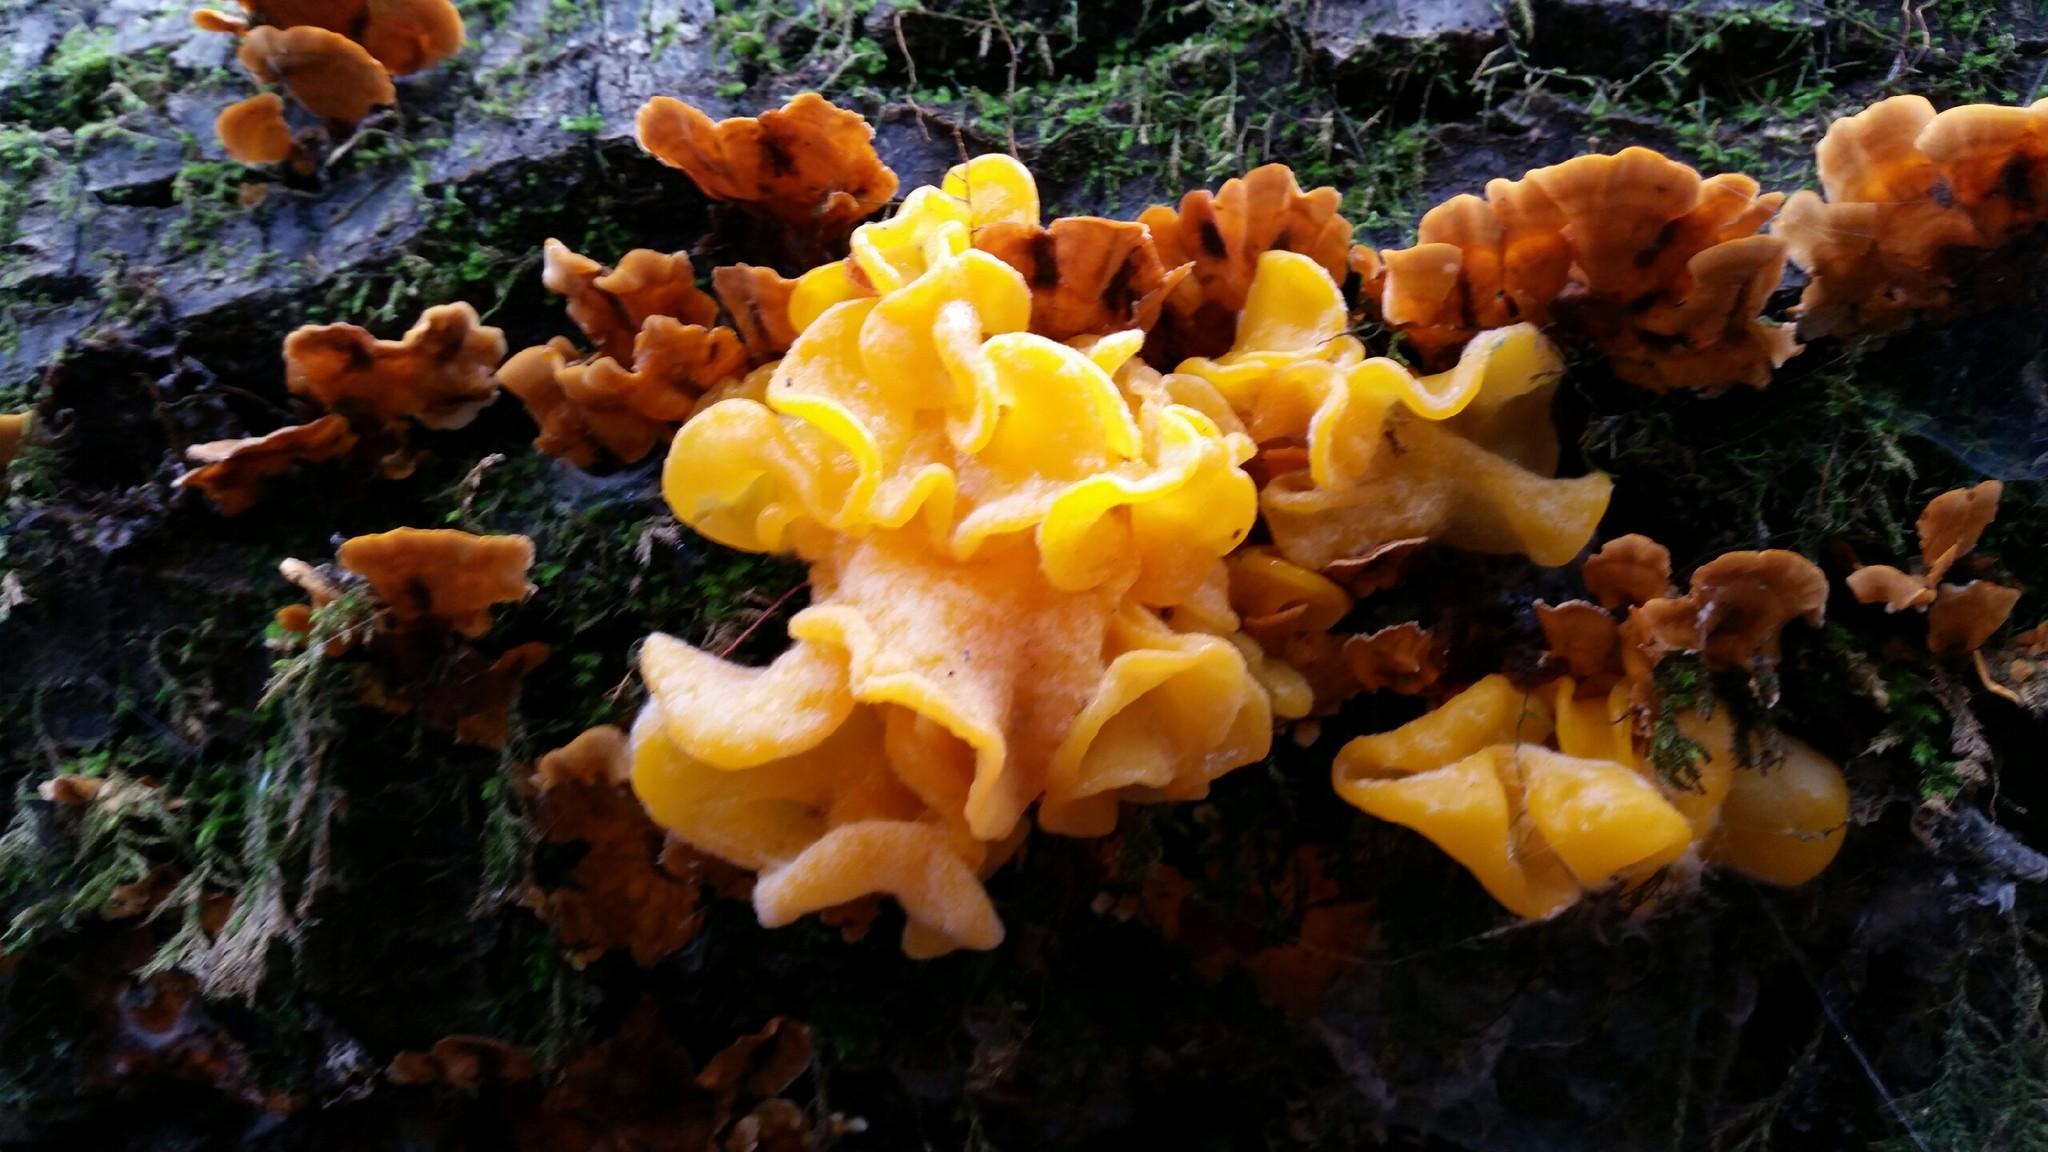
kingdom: Fungi
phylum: Basidiomycota
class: Tremellomycetes
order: Tremellales
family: Naemateliaceae
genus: Naematelia
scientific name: Naematelia aurantia
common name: Golden ear
